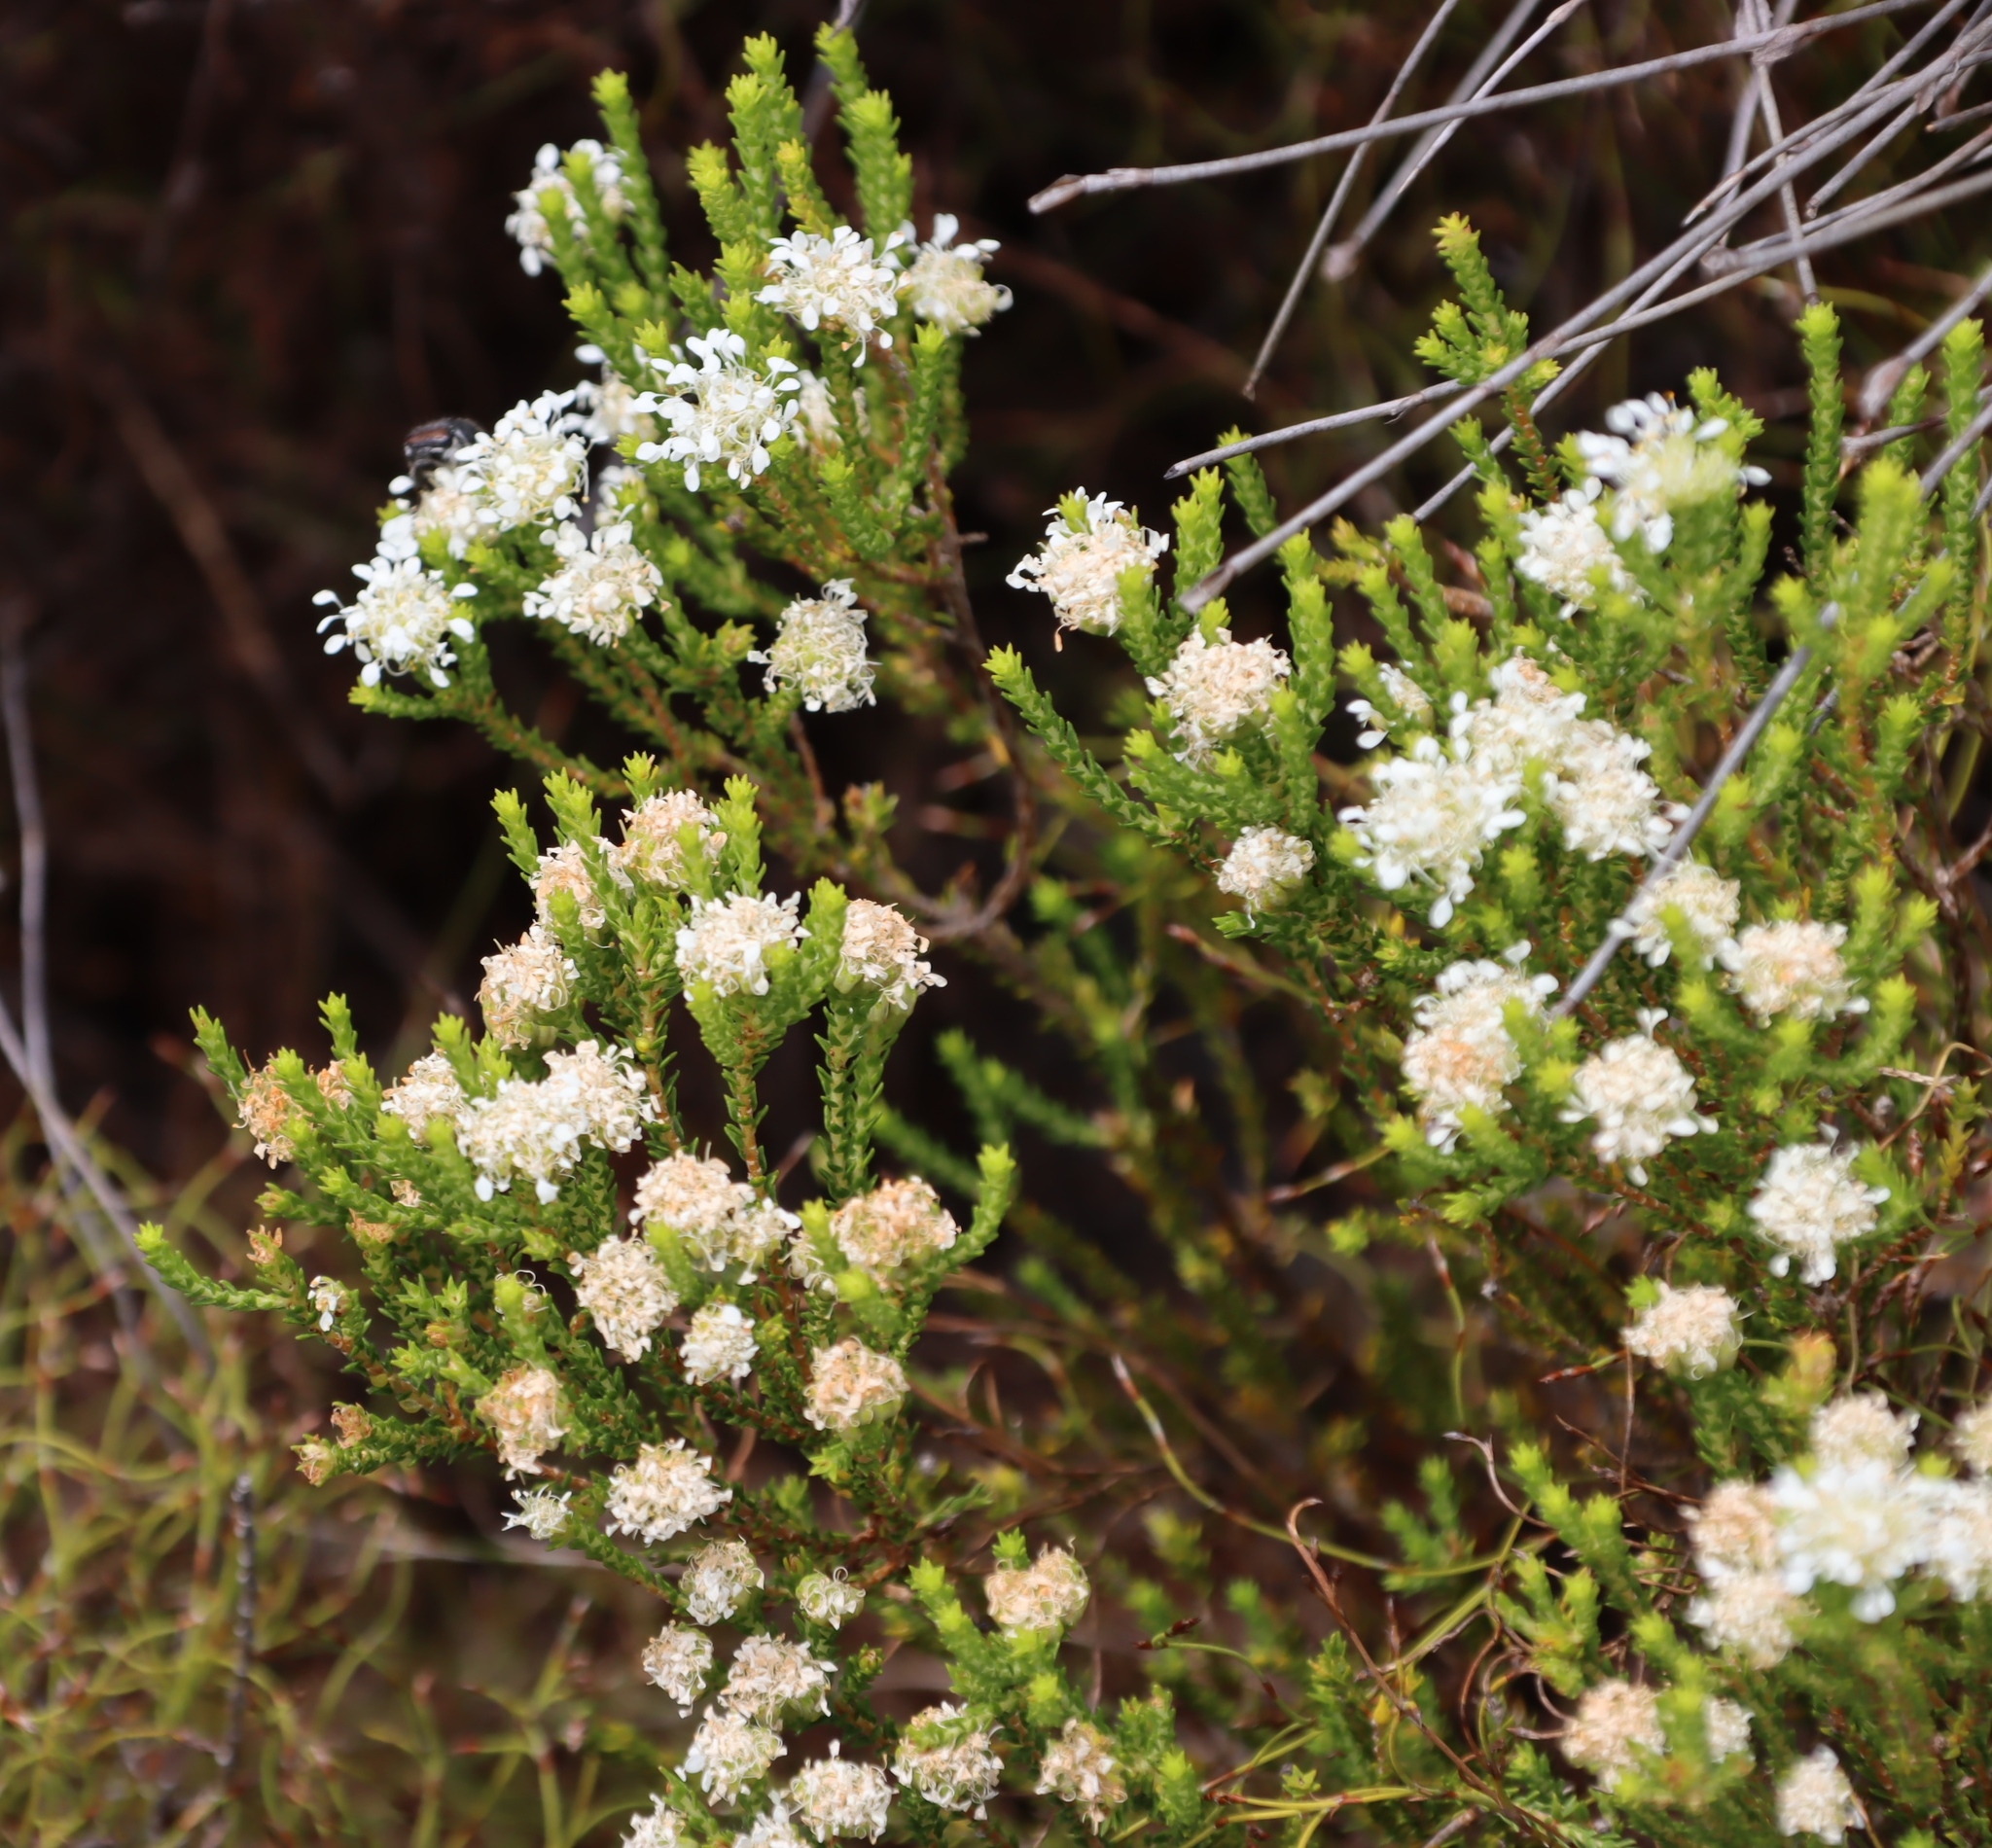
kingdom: Plantae
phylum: Tracheophyta
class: Magnoliopsida
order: Sapindales
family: Rutaceae
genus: Agathosma
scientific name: Agathosma imbricata
